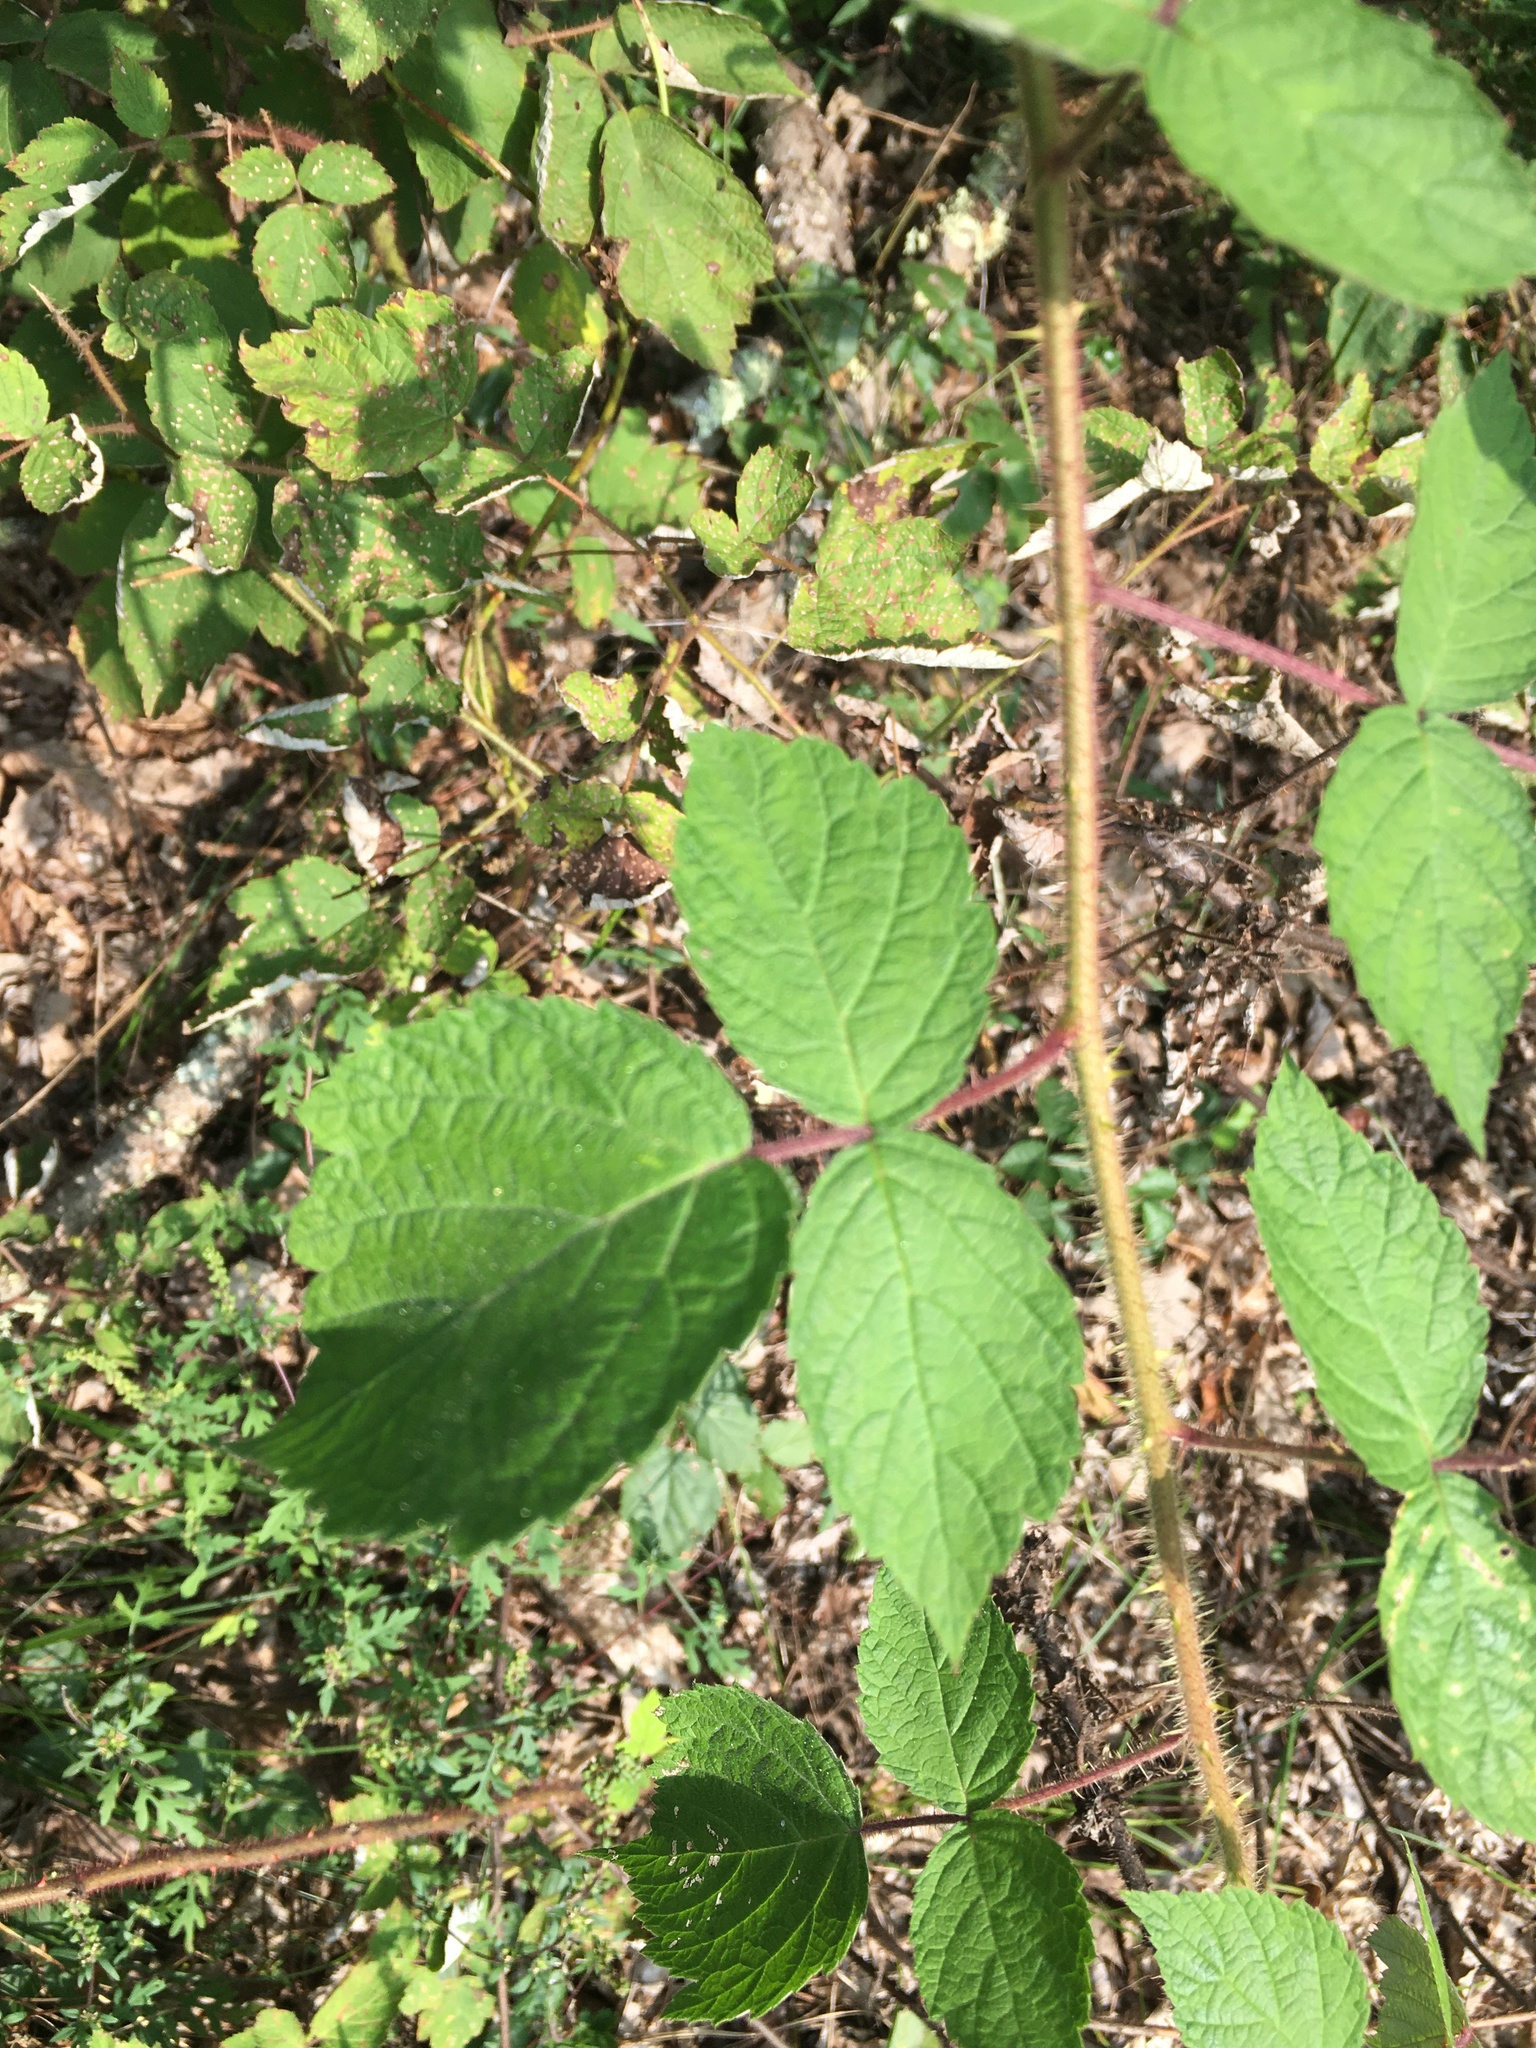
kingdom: Plantae
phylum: Tracheophyta
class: Magnoliopsida
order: Rosales
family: Rosaceae
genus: Rubus
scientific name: Rubus phoenicolasius
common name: Japanese wineberry
